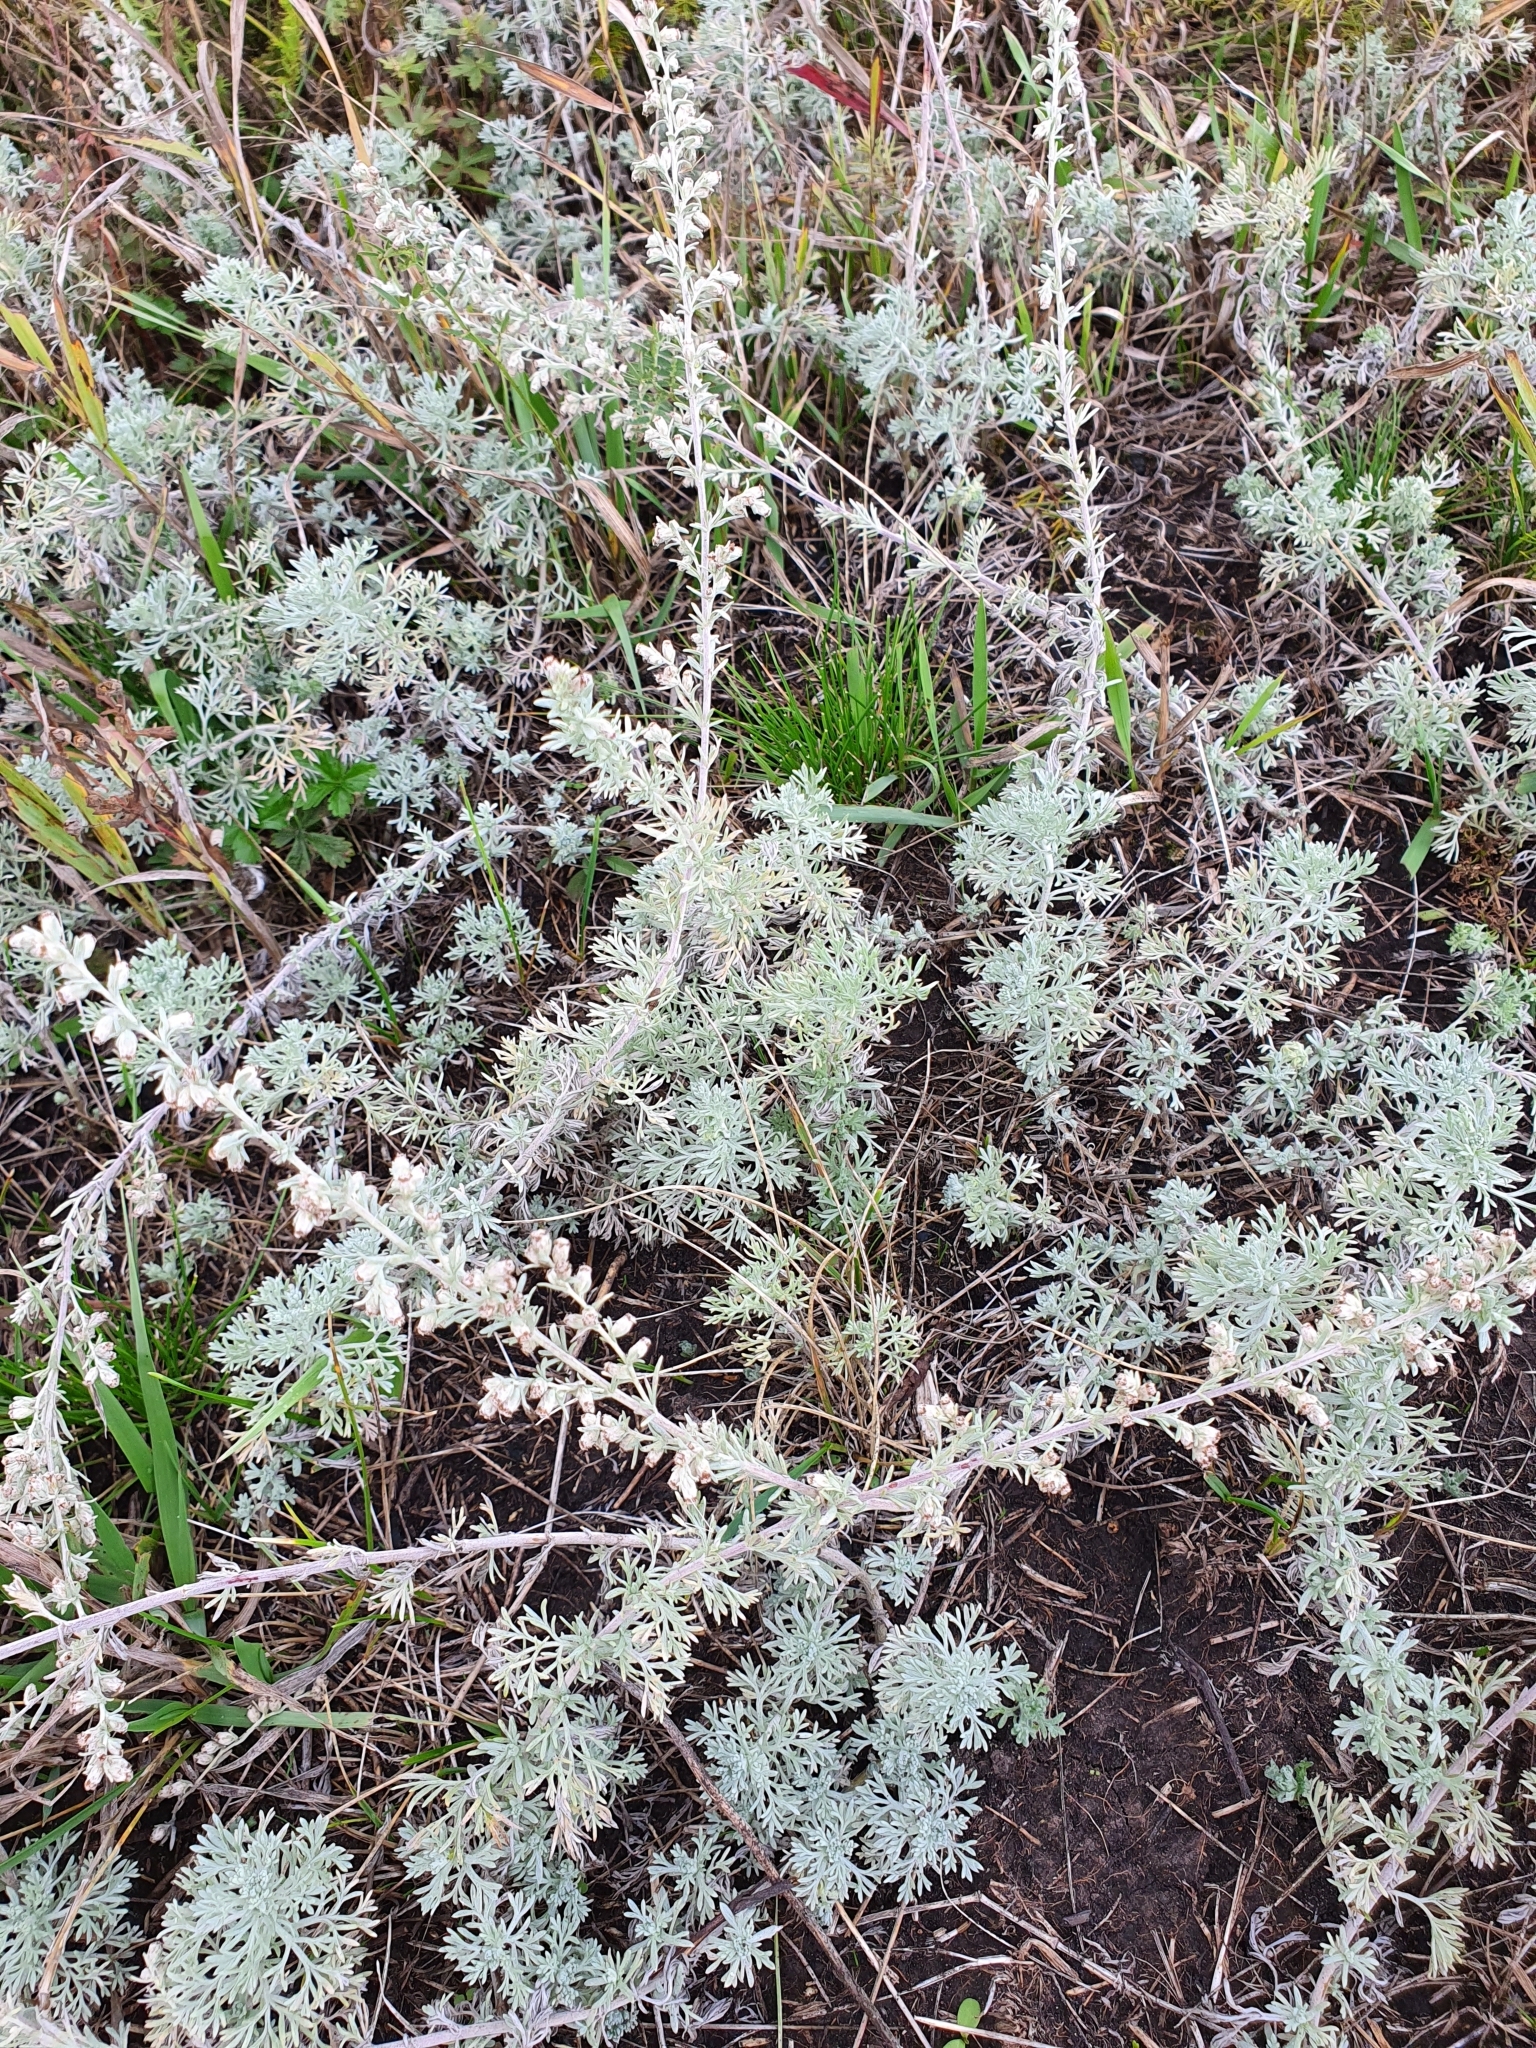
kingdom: Plantae
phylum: Tracheophyta
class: Magnoliopsida
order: Asterales
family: Asteraceae
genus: Artemisia
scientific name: Artemisia austriaca
